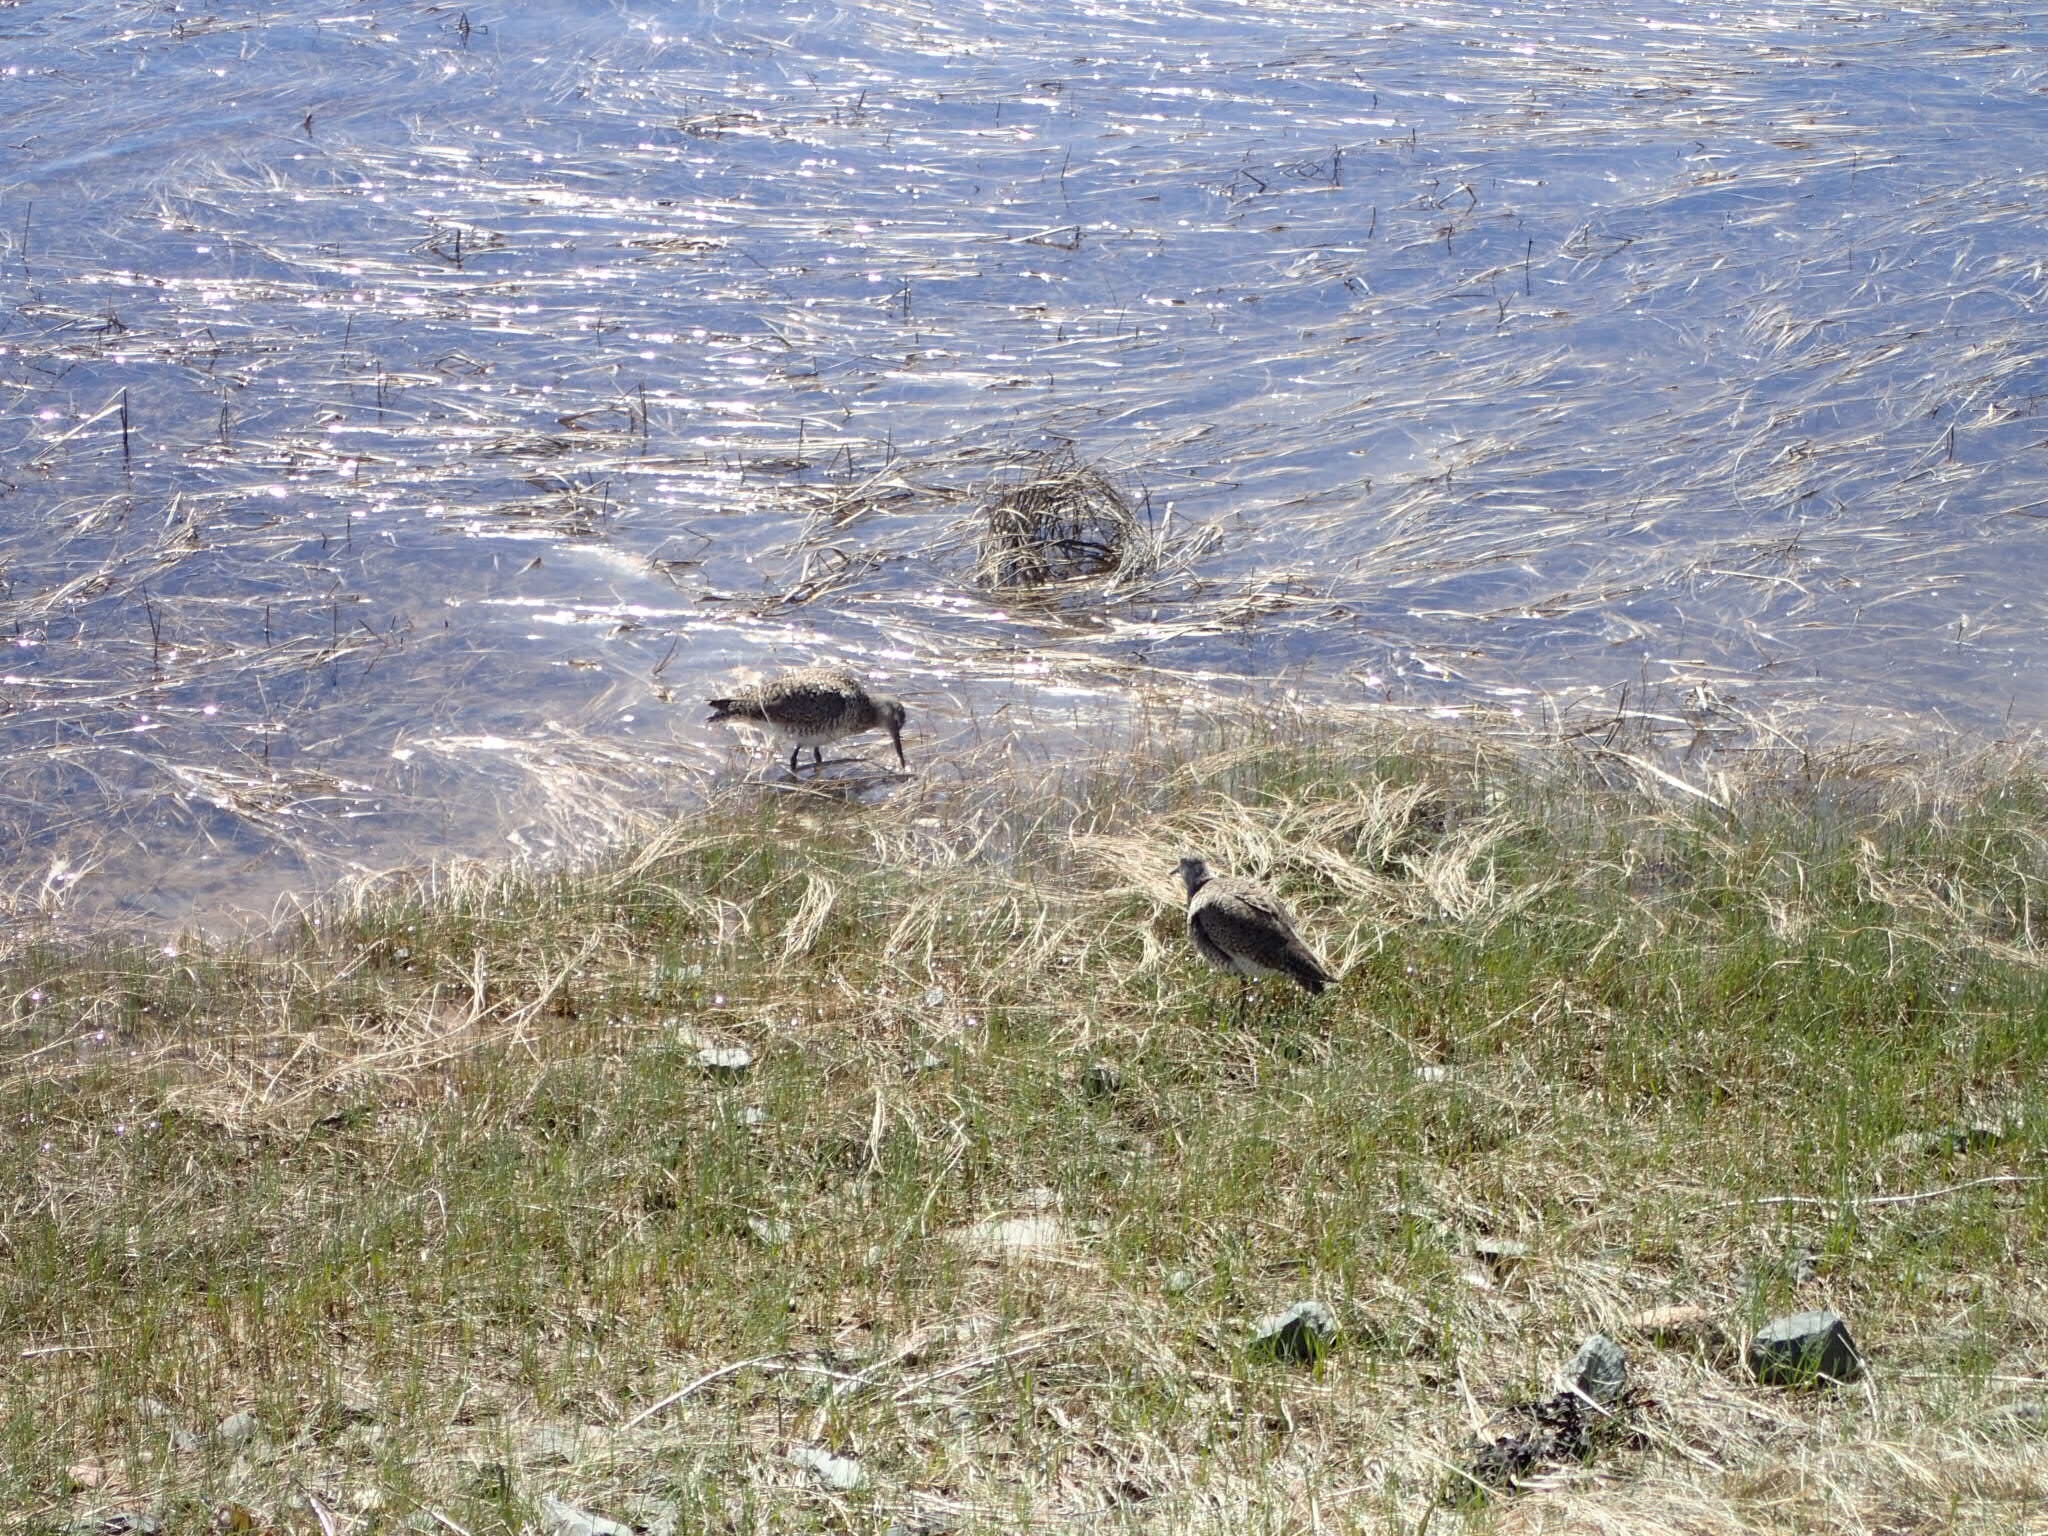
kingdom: Animalia
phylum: Chordata
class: Aves
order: Charadriiformes
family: Scolopacidae
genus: Tringa
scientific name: Tringa semipalmata
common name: Willet
